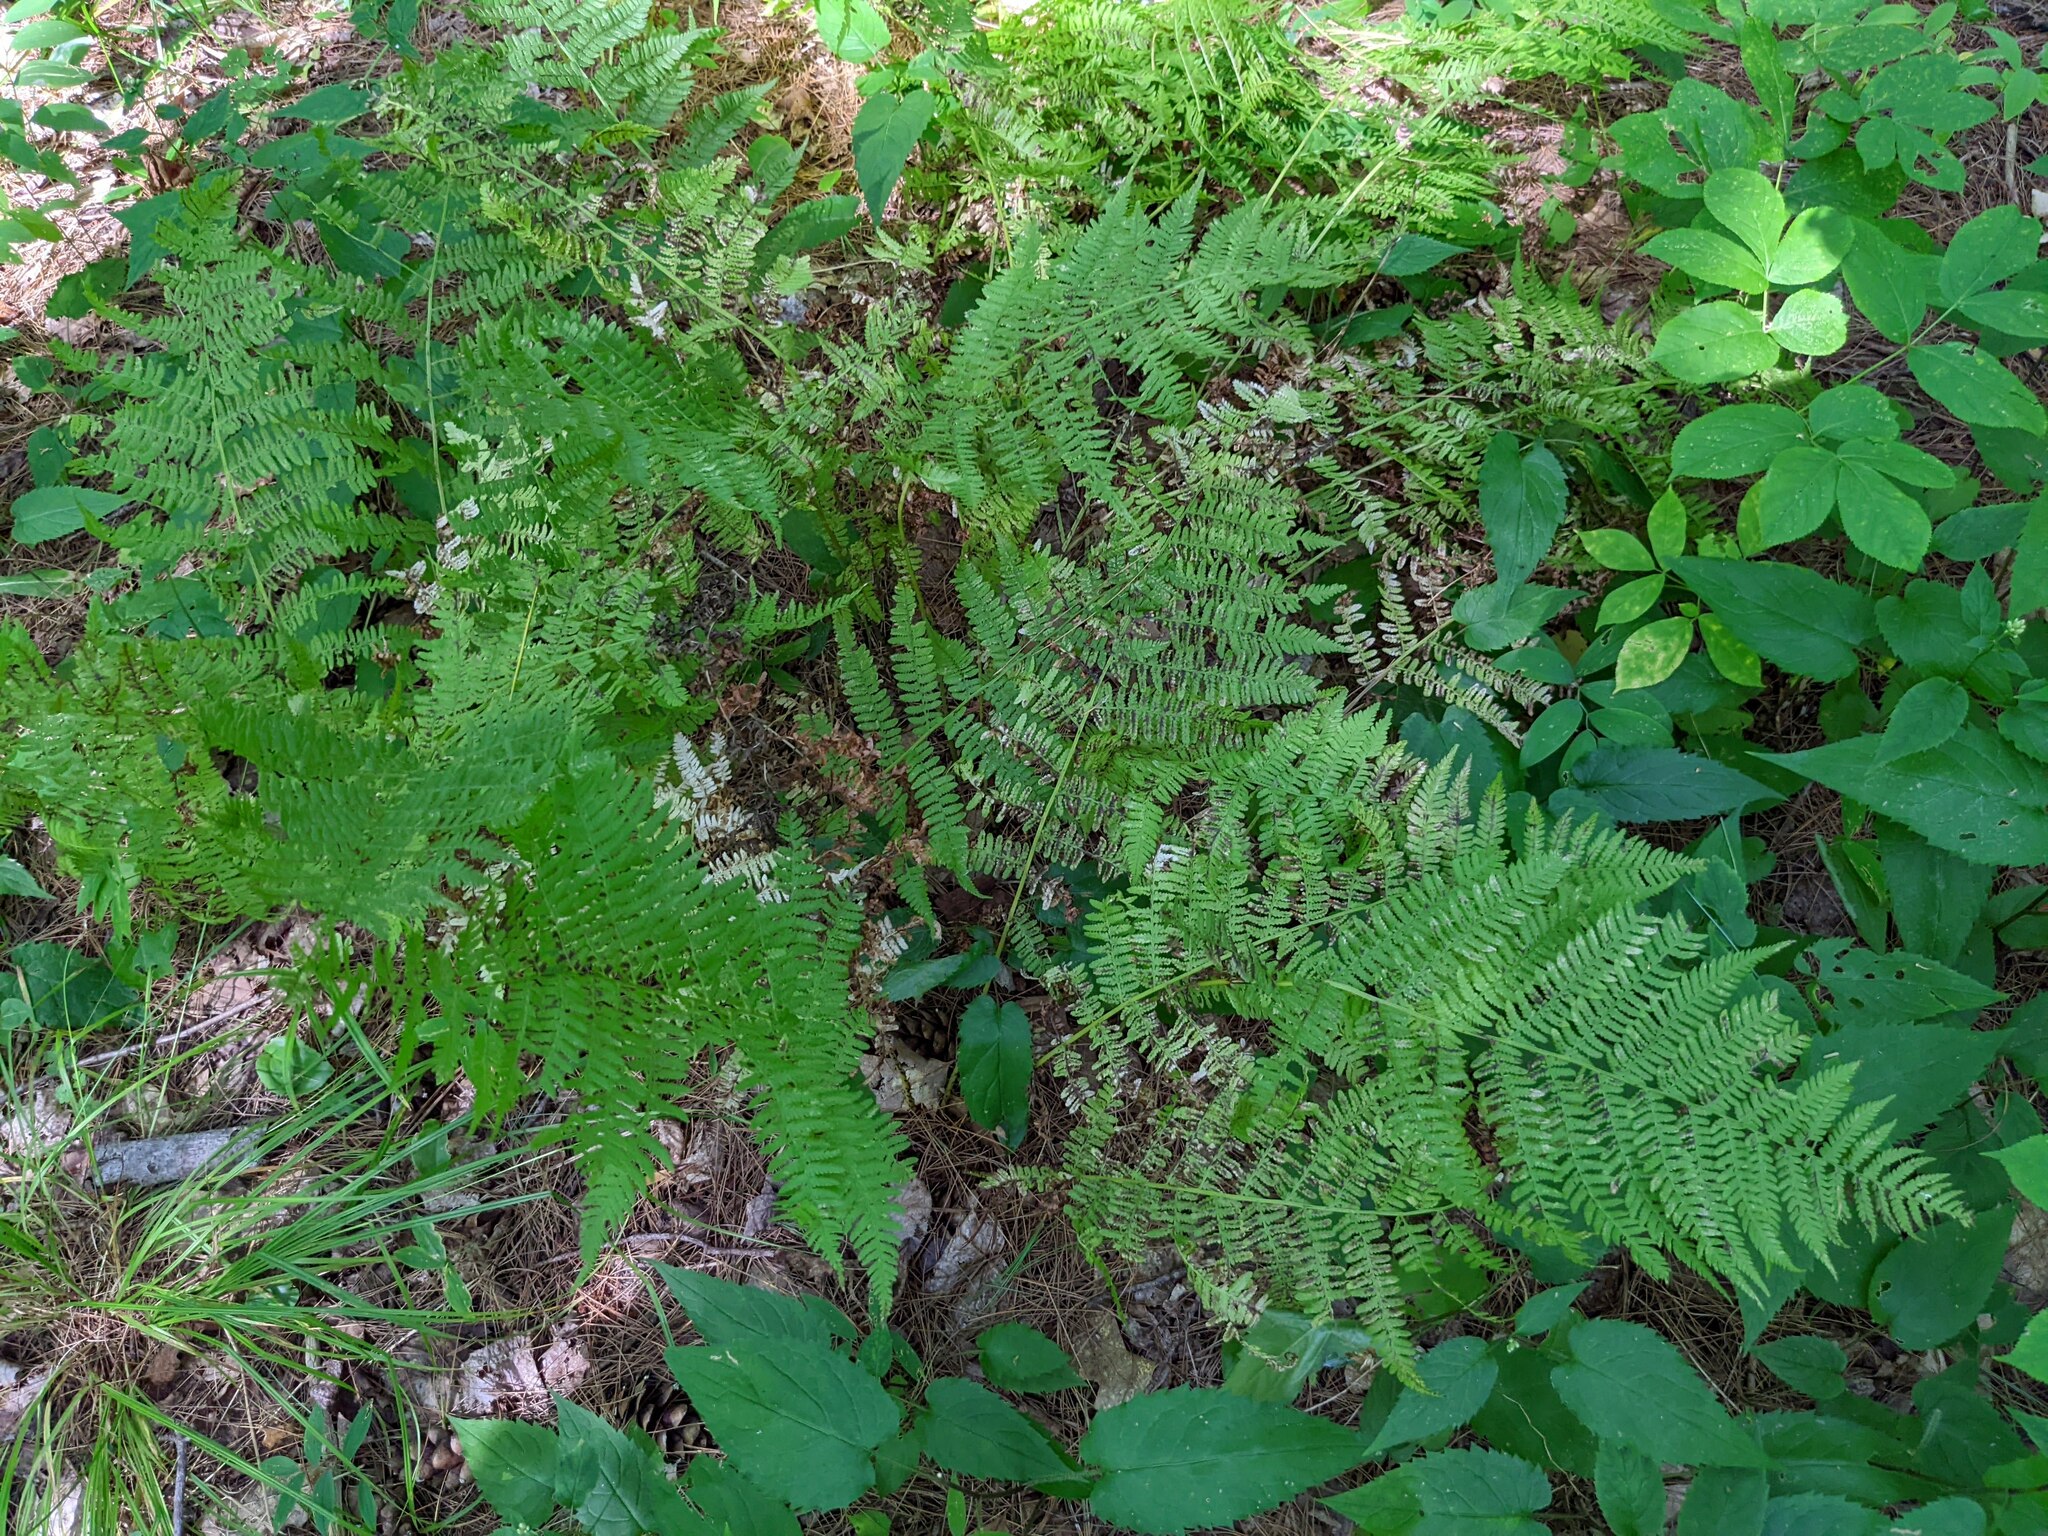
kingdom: Plantae
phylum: Tracheophyta
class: Polypodiopsida
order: Polypodiales
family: Athyriaceae
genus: Athyrium
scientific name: Athyrium angustum
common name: Northern lady fern
